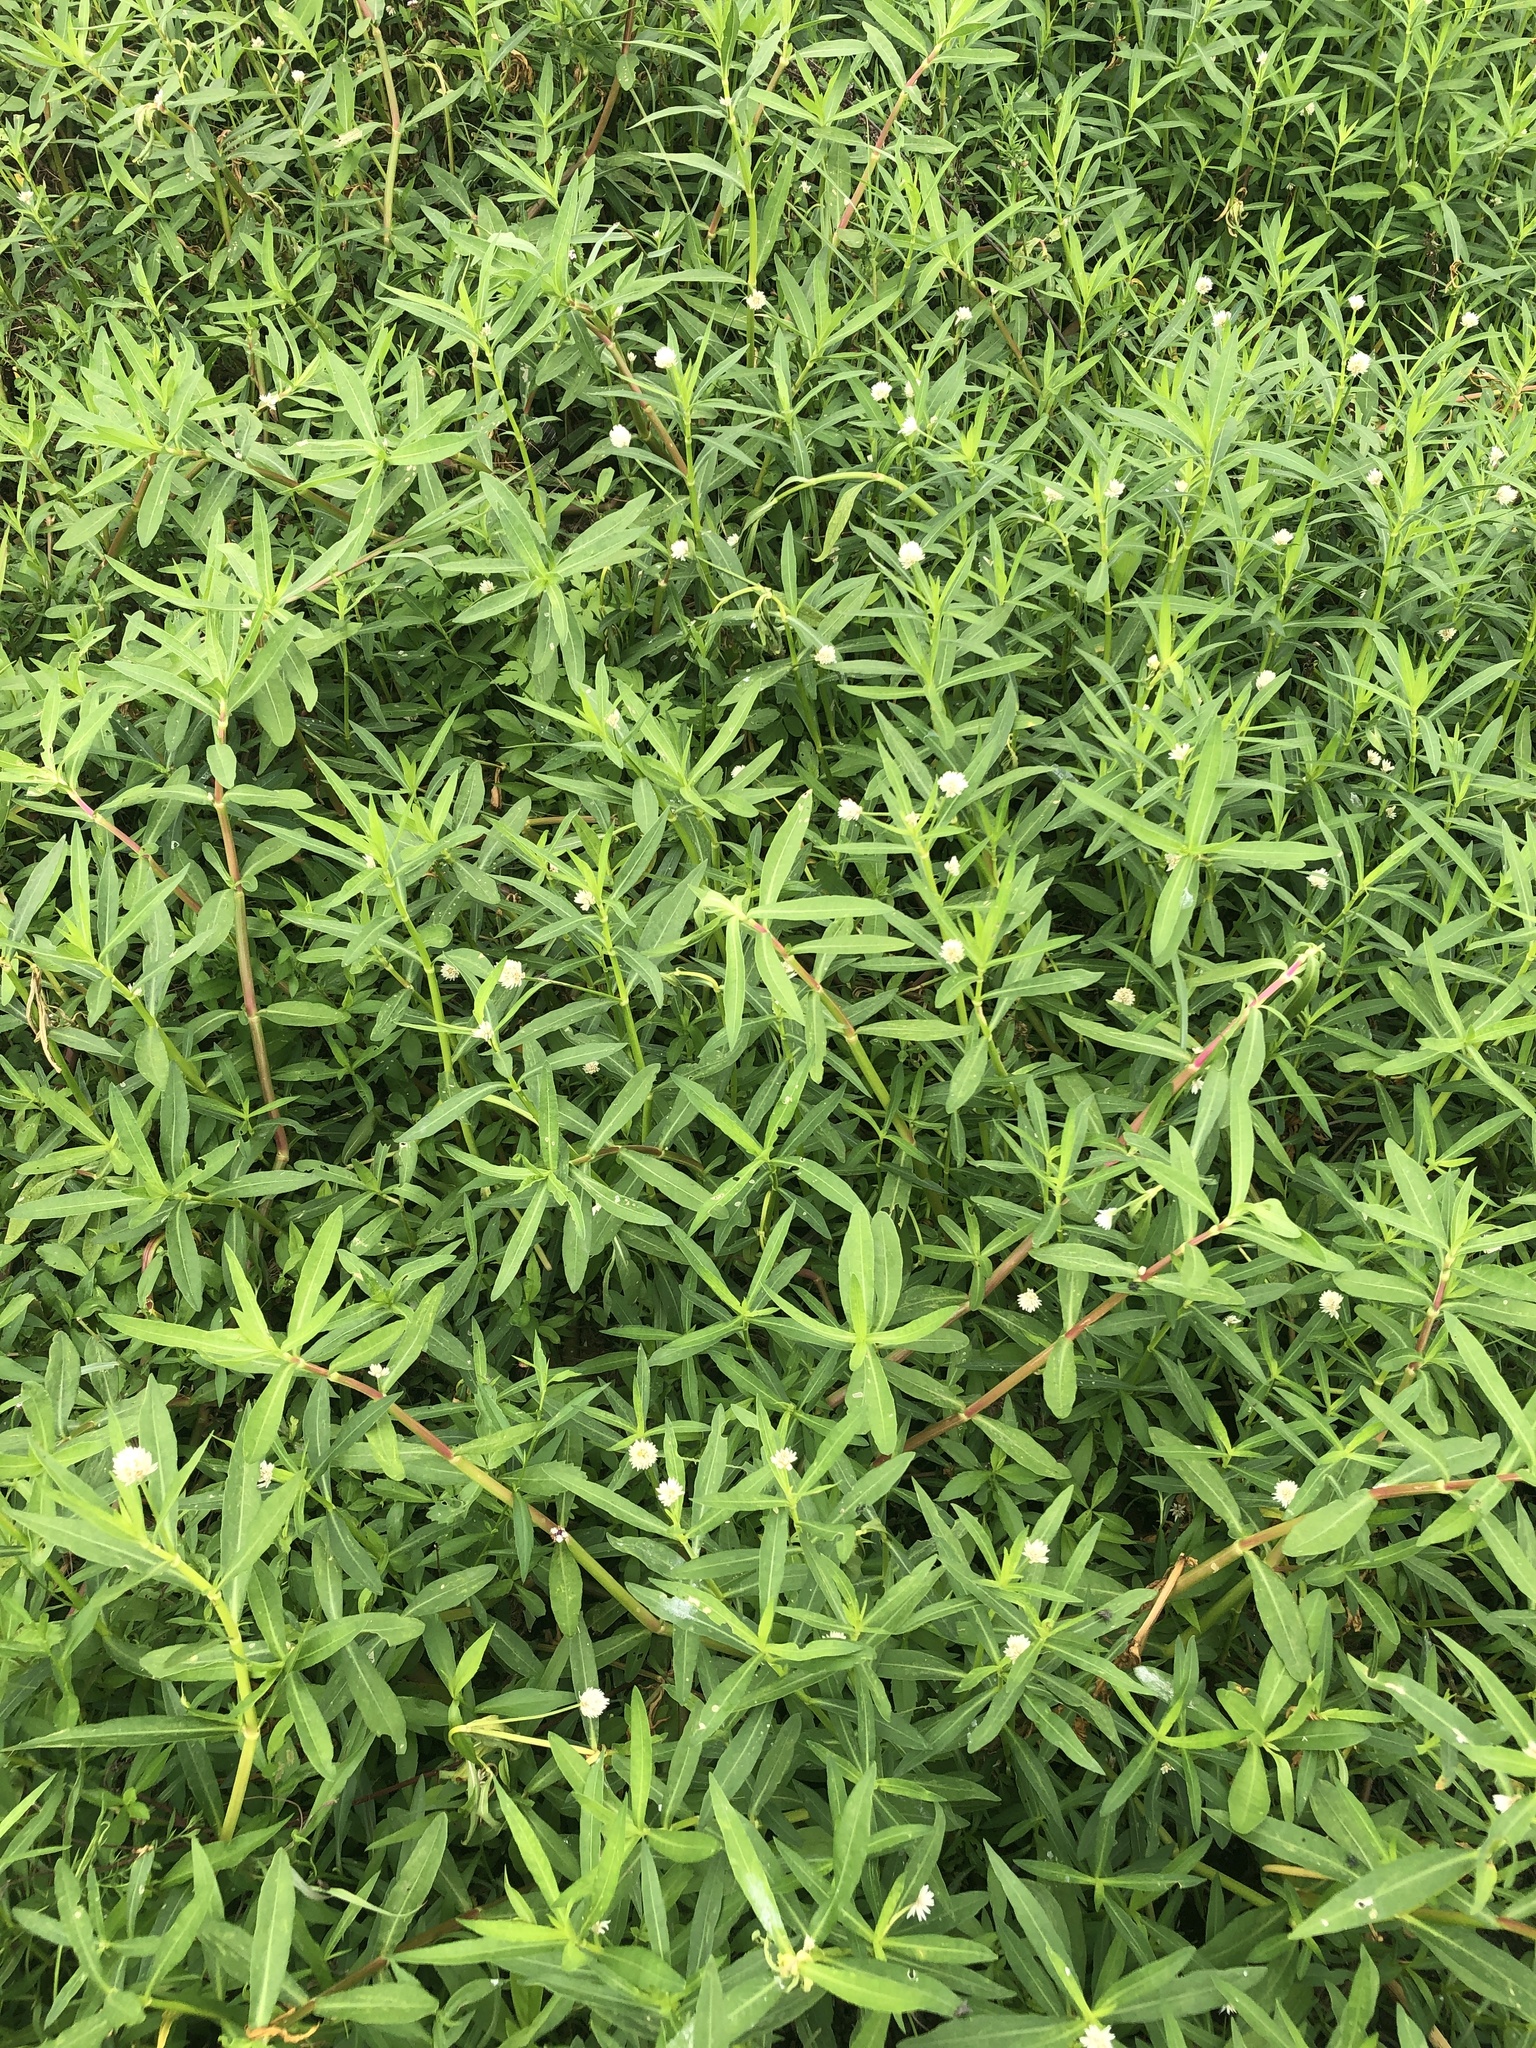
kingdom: Plantae
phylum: Tracheophyta
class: Magnoliopsida
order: Caryophyllales
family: Amaranthaceae
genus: Alternanthera
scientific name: Alternanthera philoxeroides
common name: Alligatorweed
